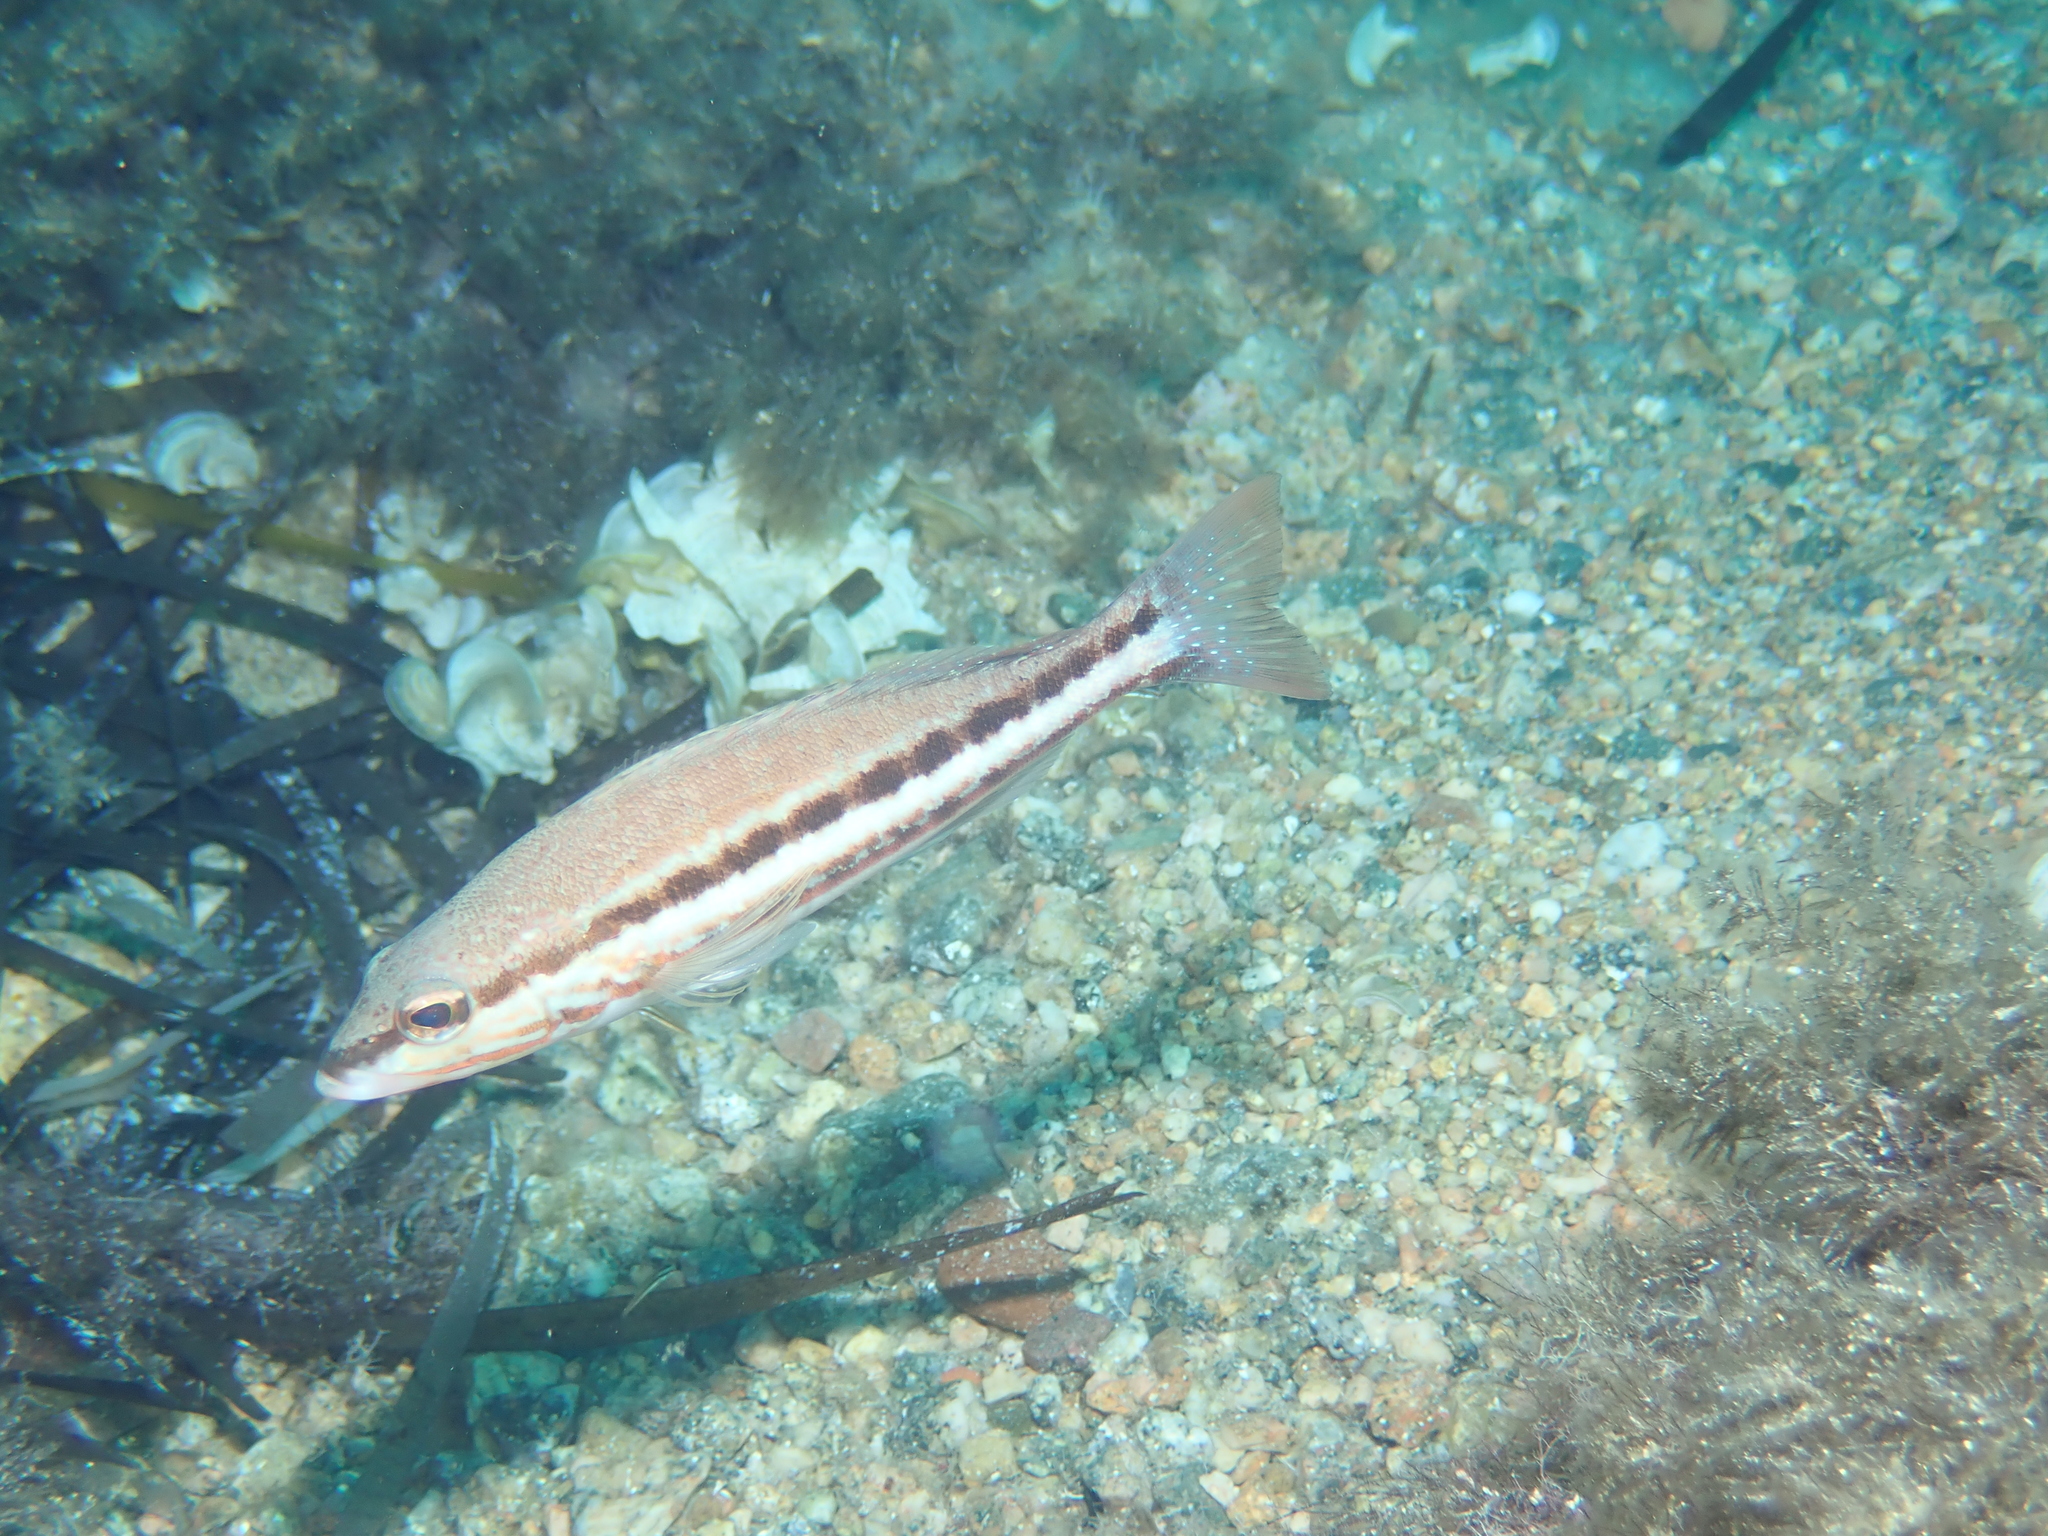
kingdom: Animalia
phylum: Chordata
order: Perciformes
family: Serranidae
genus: Serranus
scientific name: Serranus cabrilla
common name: Comber
